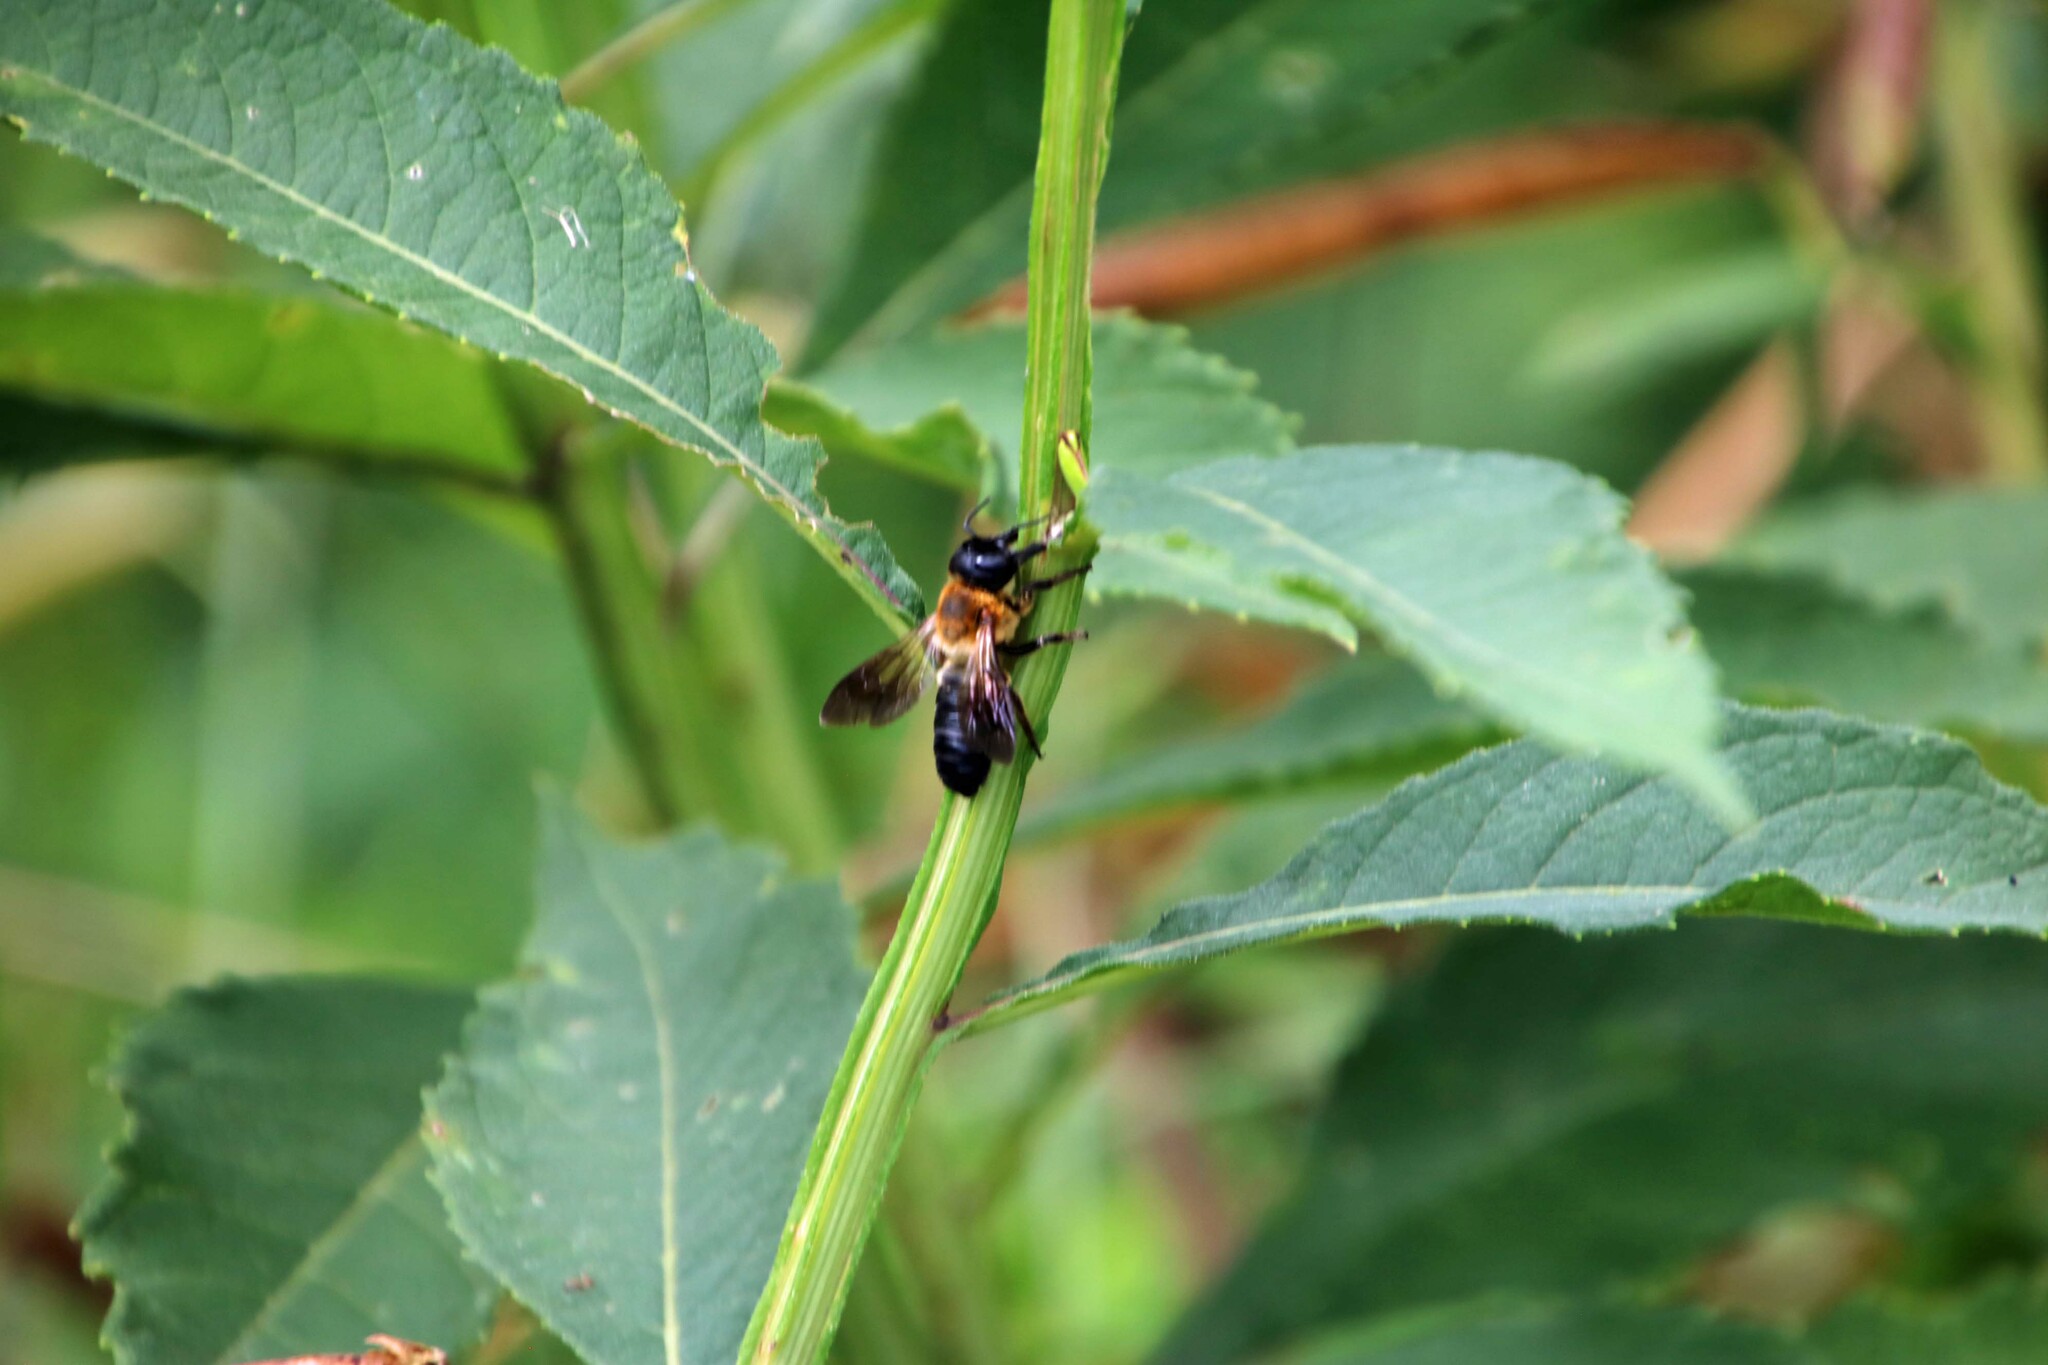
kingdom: Animalia
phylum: Arthropoda
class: Insecta
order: Hymenoptera
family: Megachilidae
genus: Megachile
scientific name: Megachile sculpturalis
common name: Sculptured resin bee
